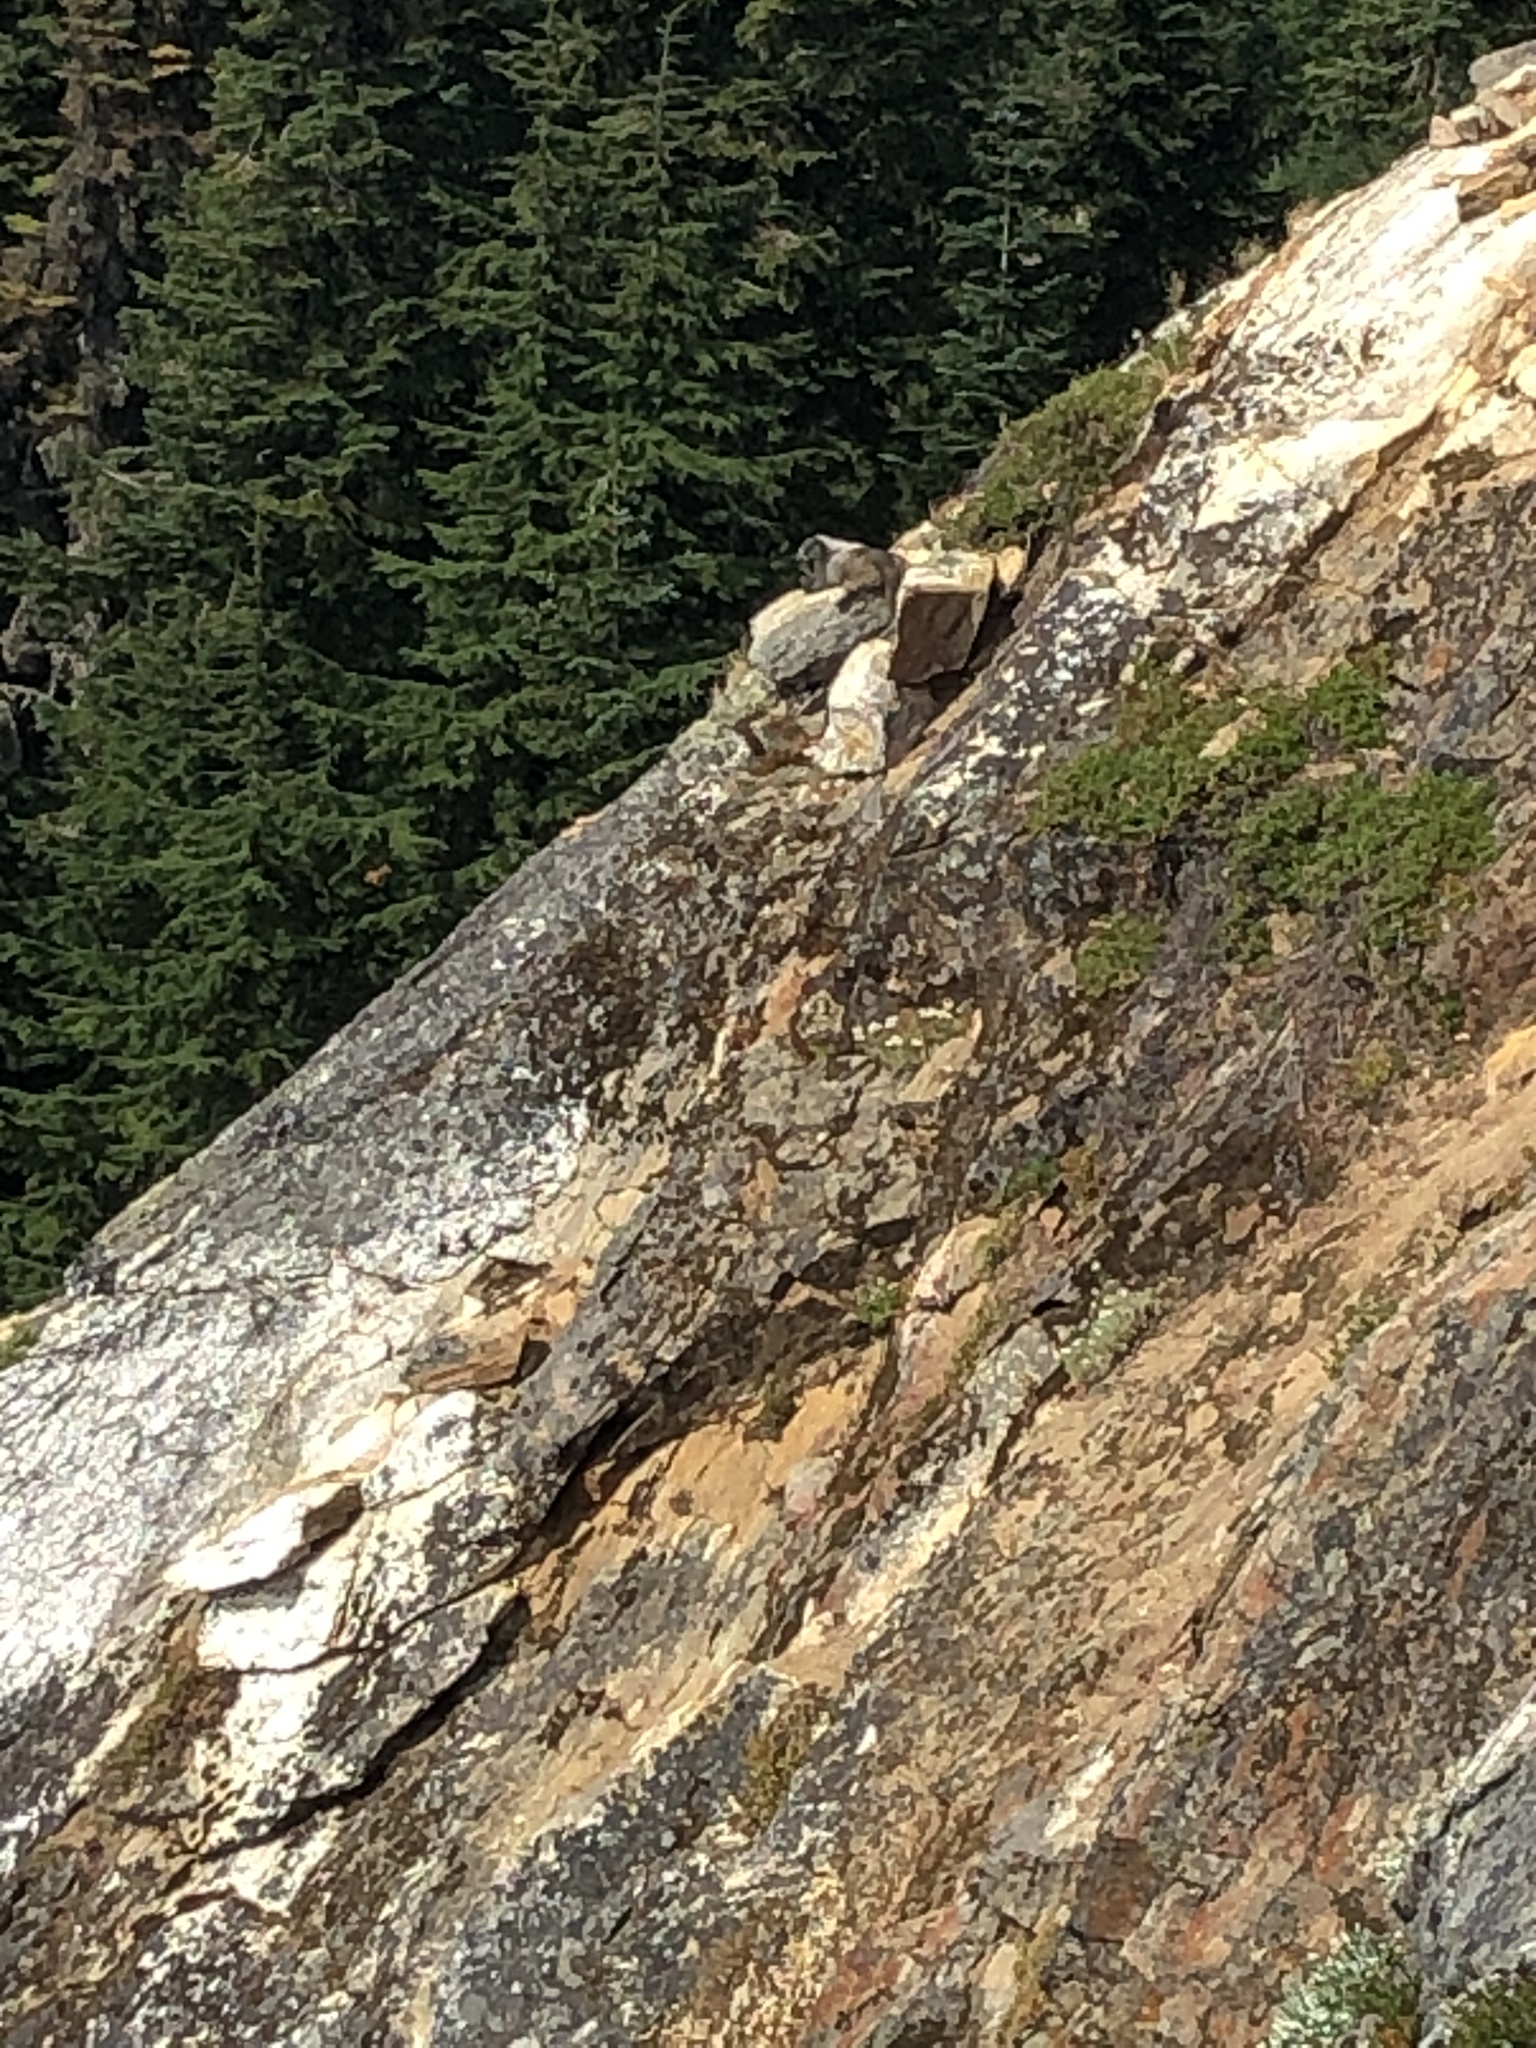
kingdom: Animalia
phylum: Chordata
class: Mammalia
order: Rodentia
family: Sciuridae
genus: Marmota
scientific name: Marmota caligata
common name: Hoary marmot
